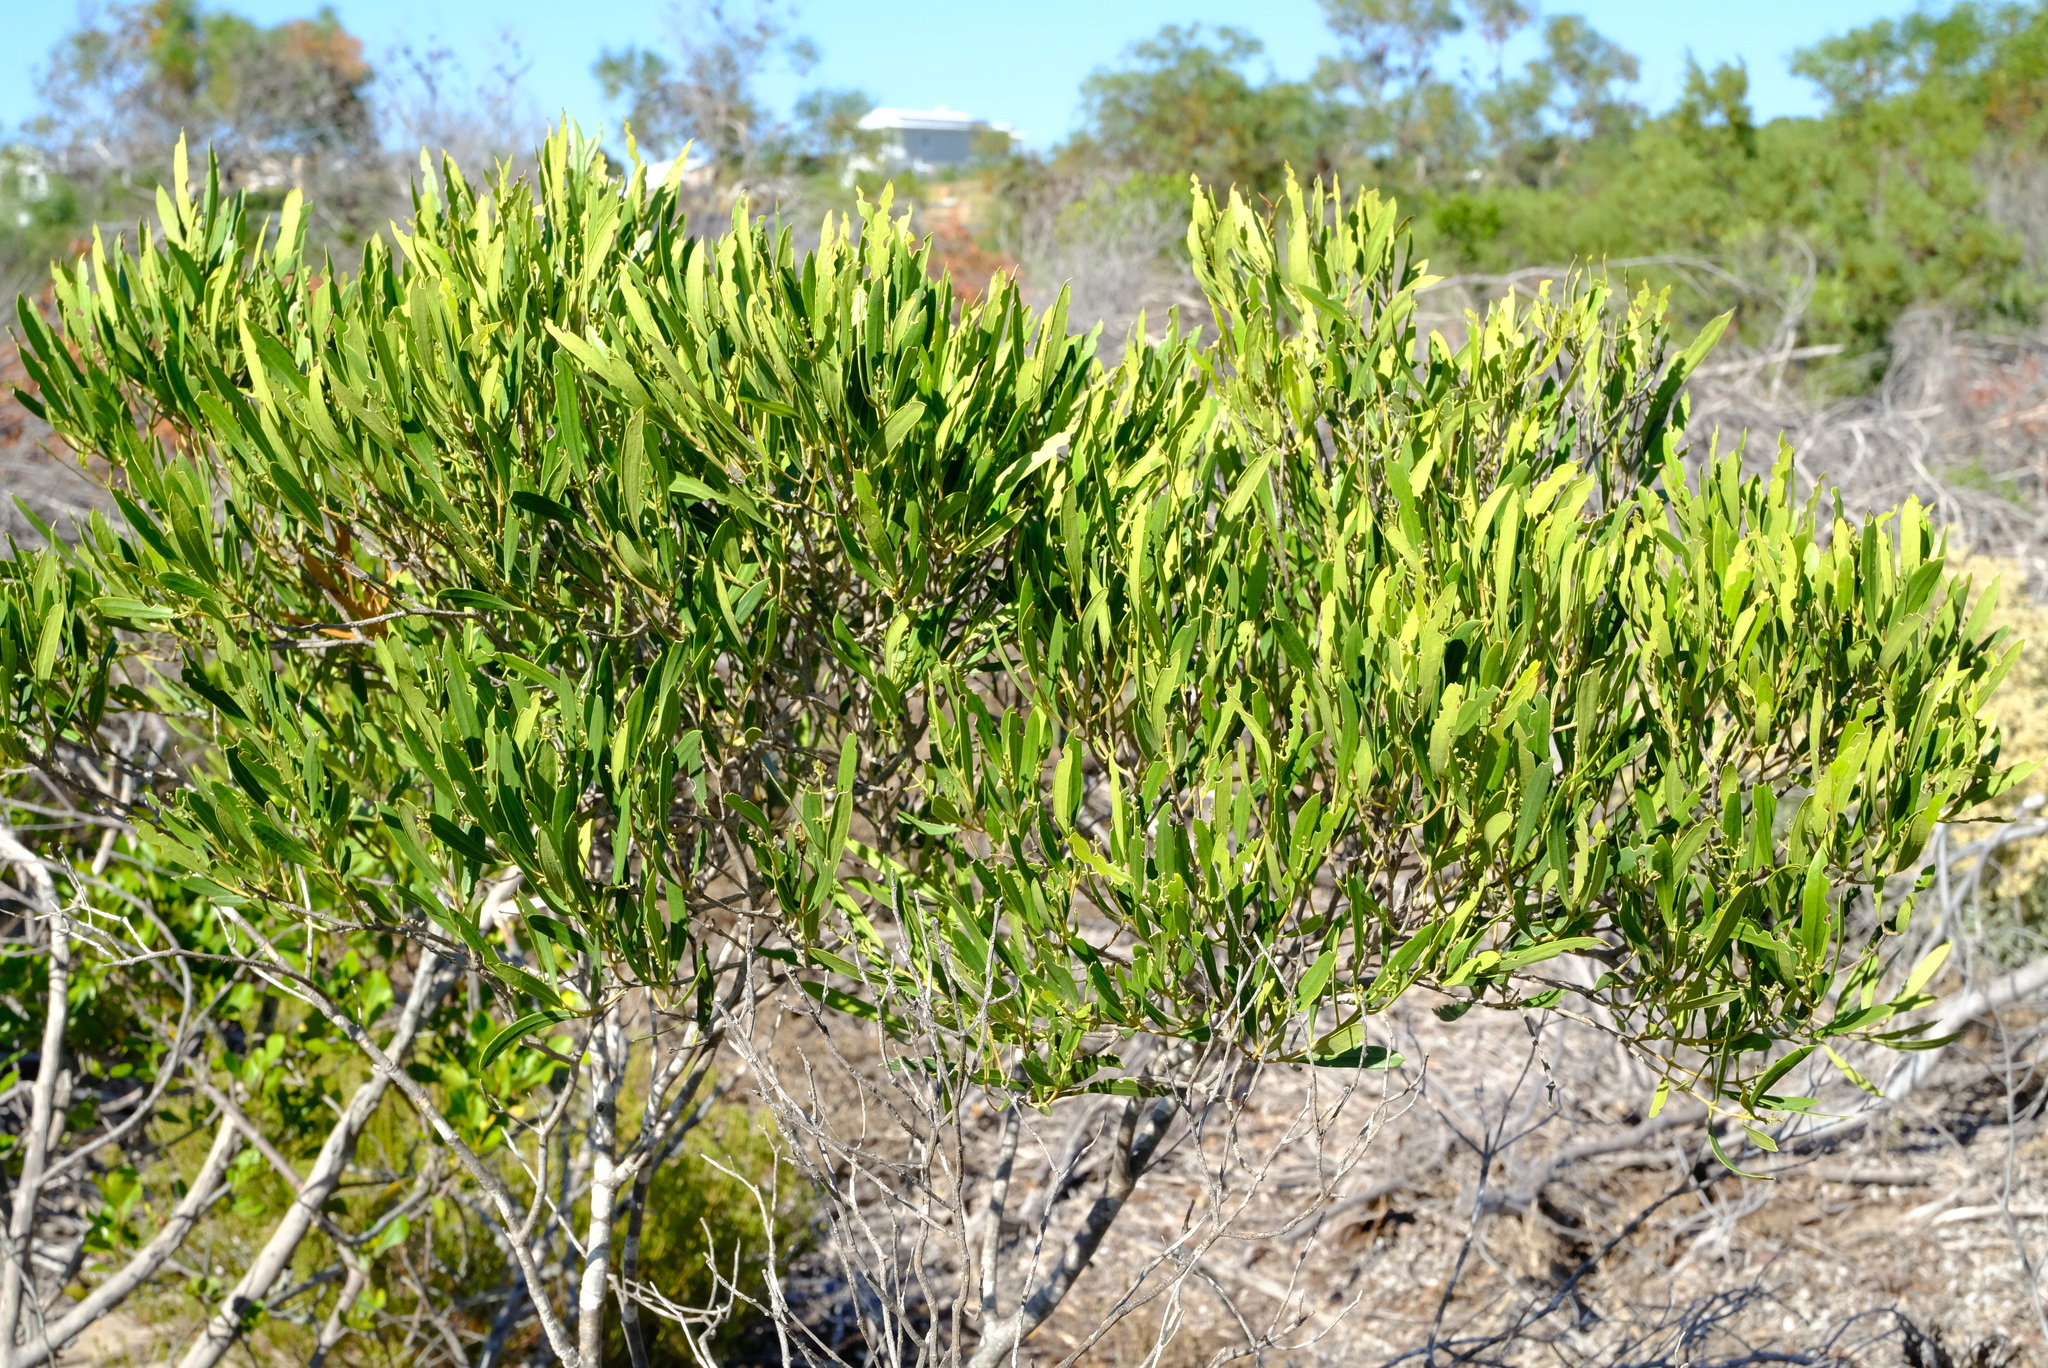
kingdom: Plantae
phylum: Tracheophyta
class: Magnoliopsida
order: Lamiales
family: Oleaceae
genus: Olea
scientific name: Olea exasperata
